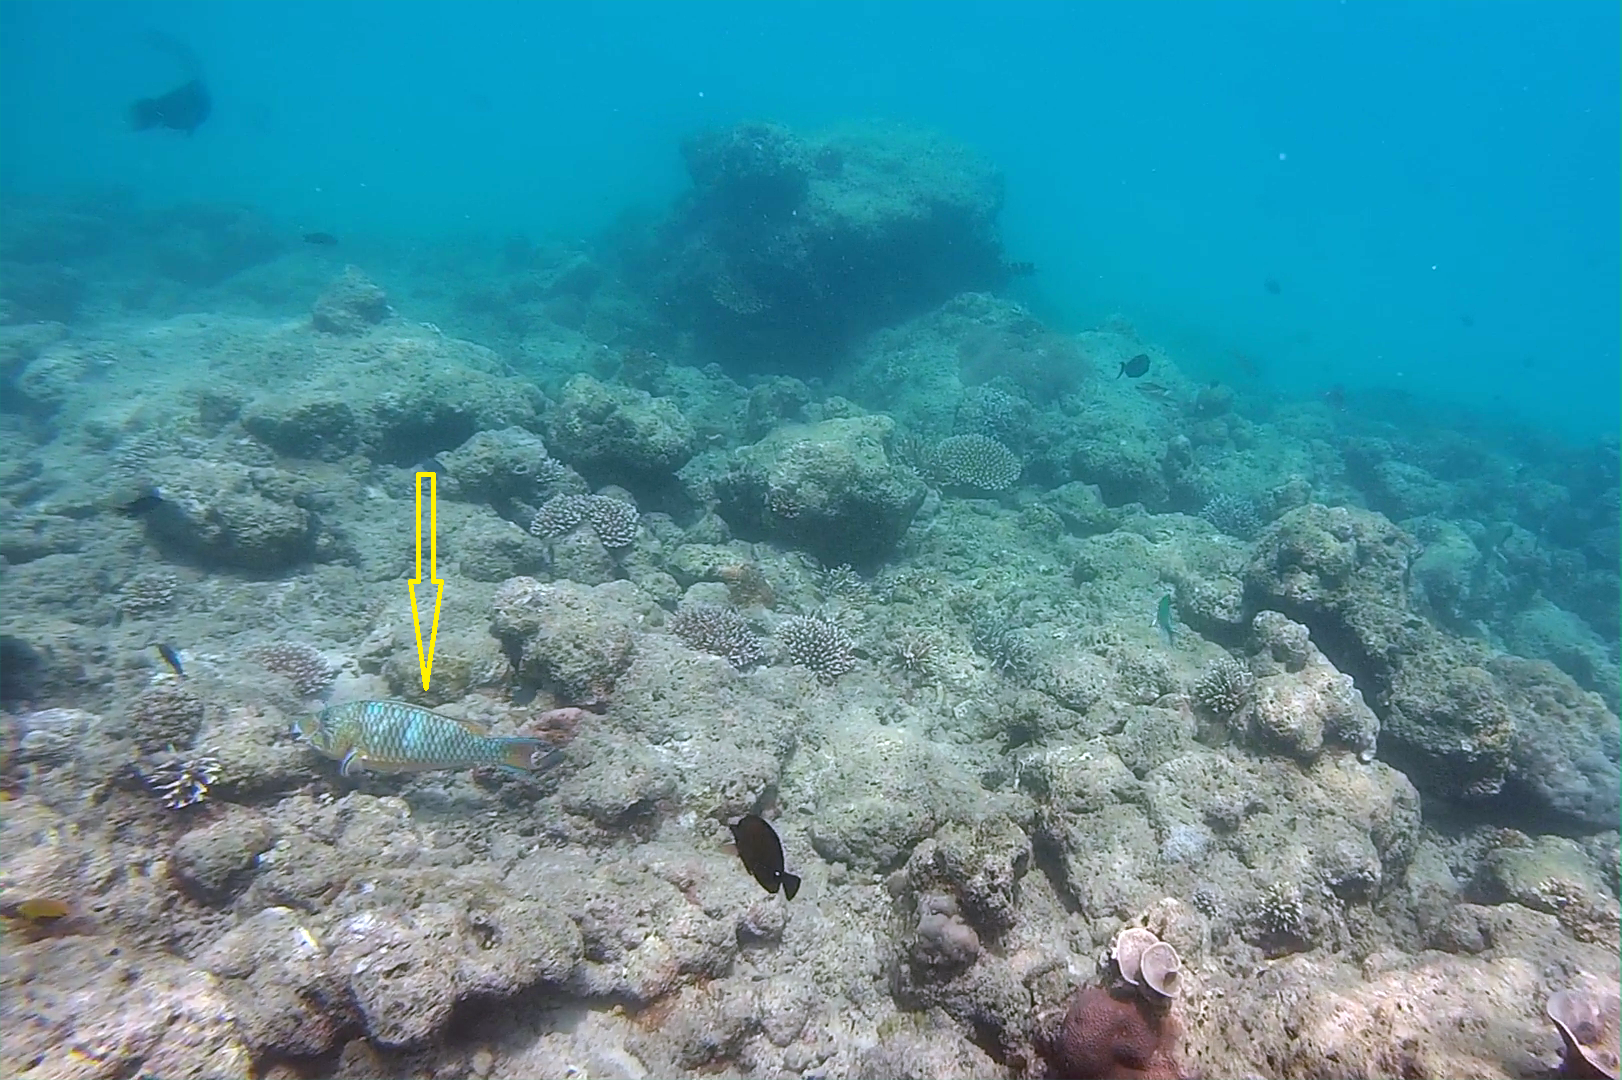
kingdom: Animalia
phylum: Chordata
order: Perciformes
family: Scaridae
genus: Scarus
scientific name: Scarus ghobban
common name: Blue-barred parrotfish
